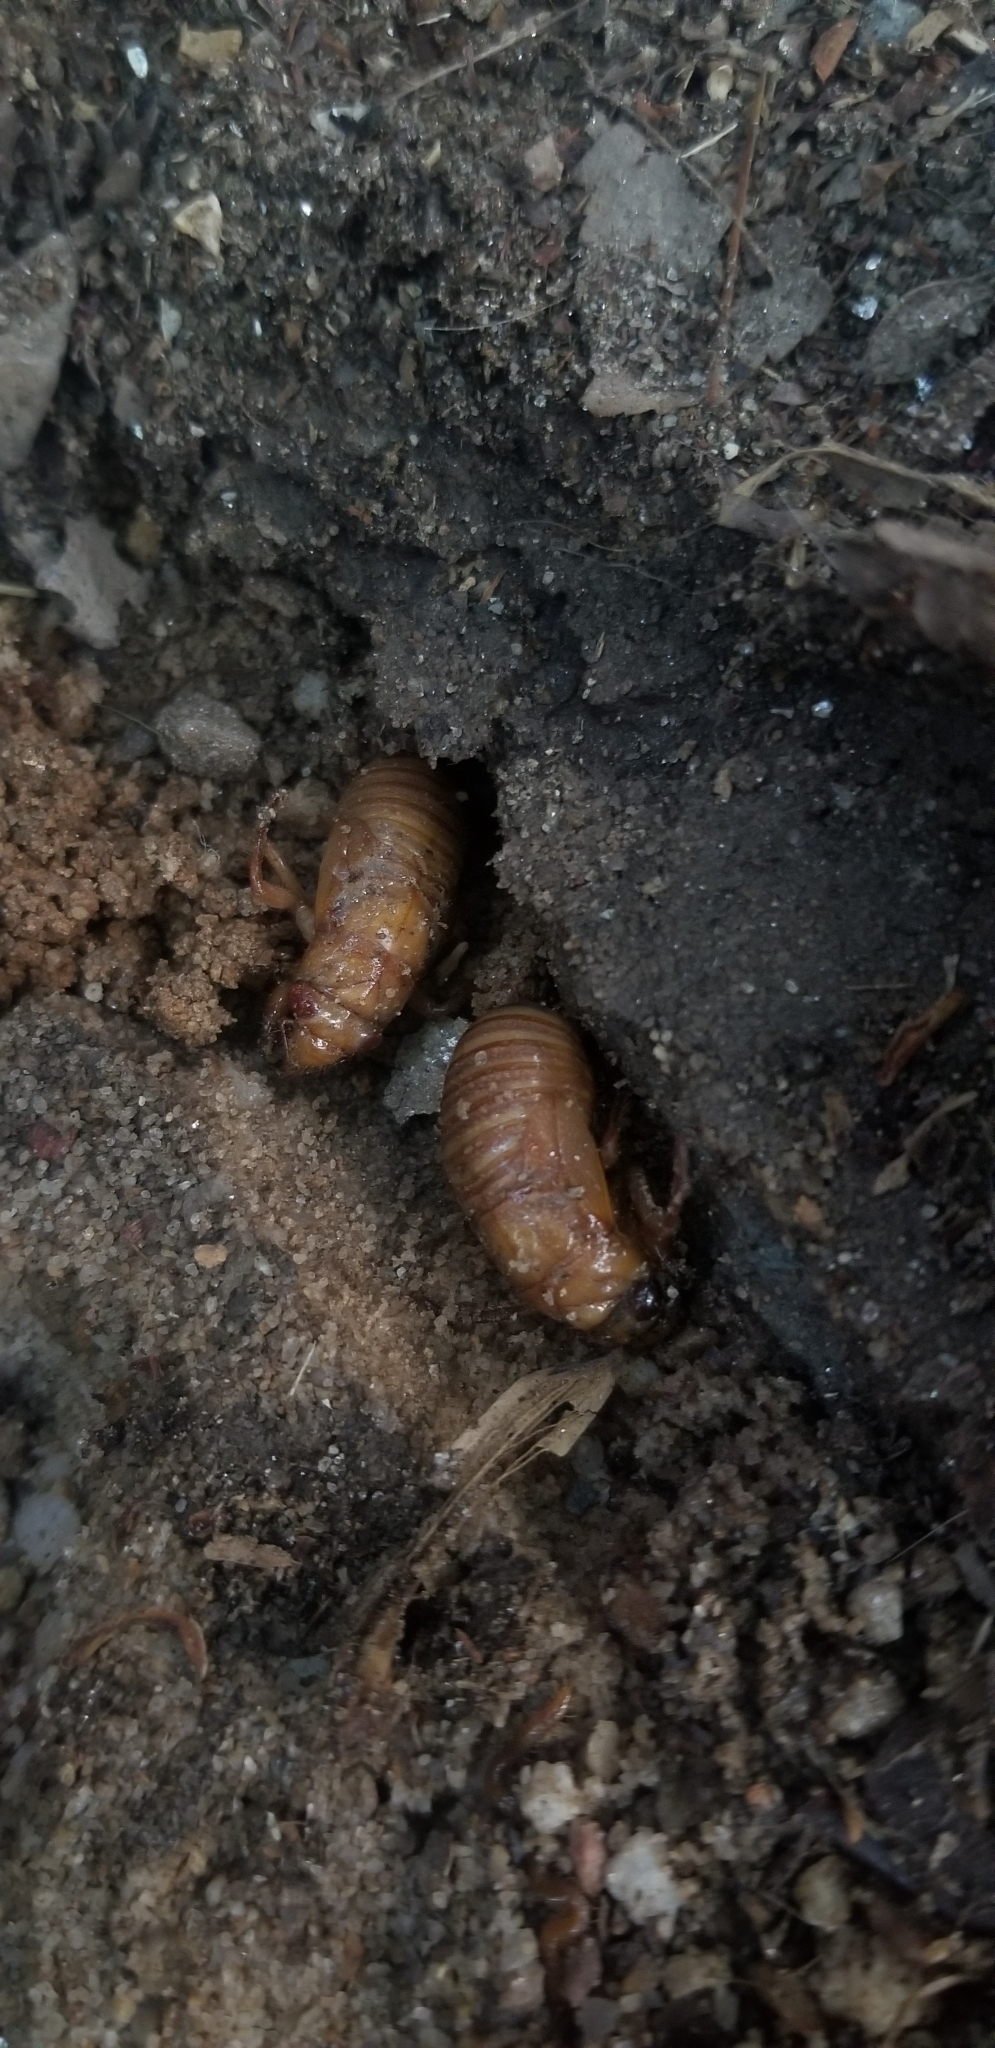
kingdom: Animalia
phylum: Arthropoda
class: Insecta
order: Hemiptera
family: Cicadidae
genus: Magicicada
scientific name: Magicicada
